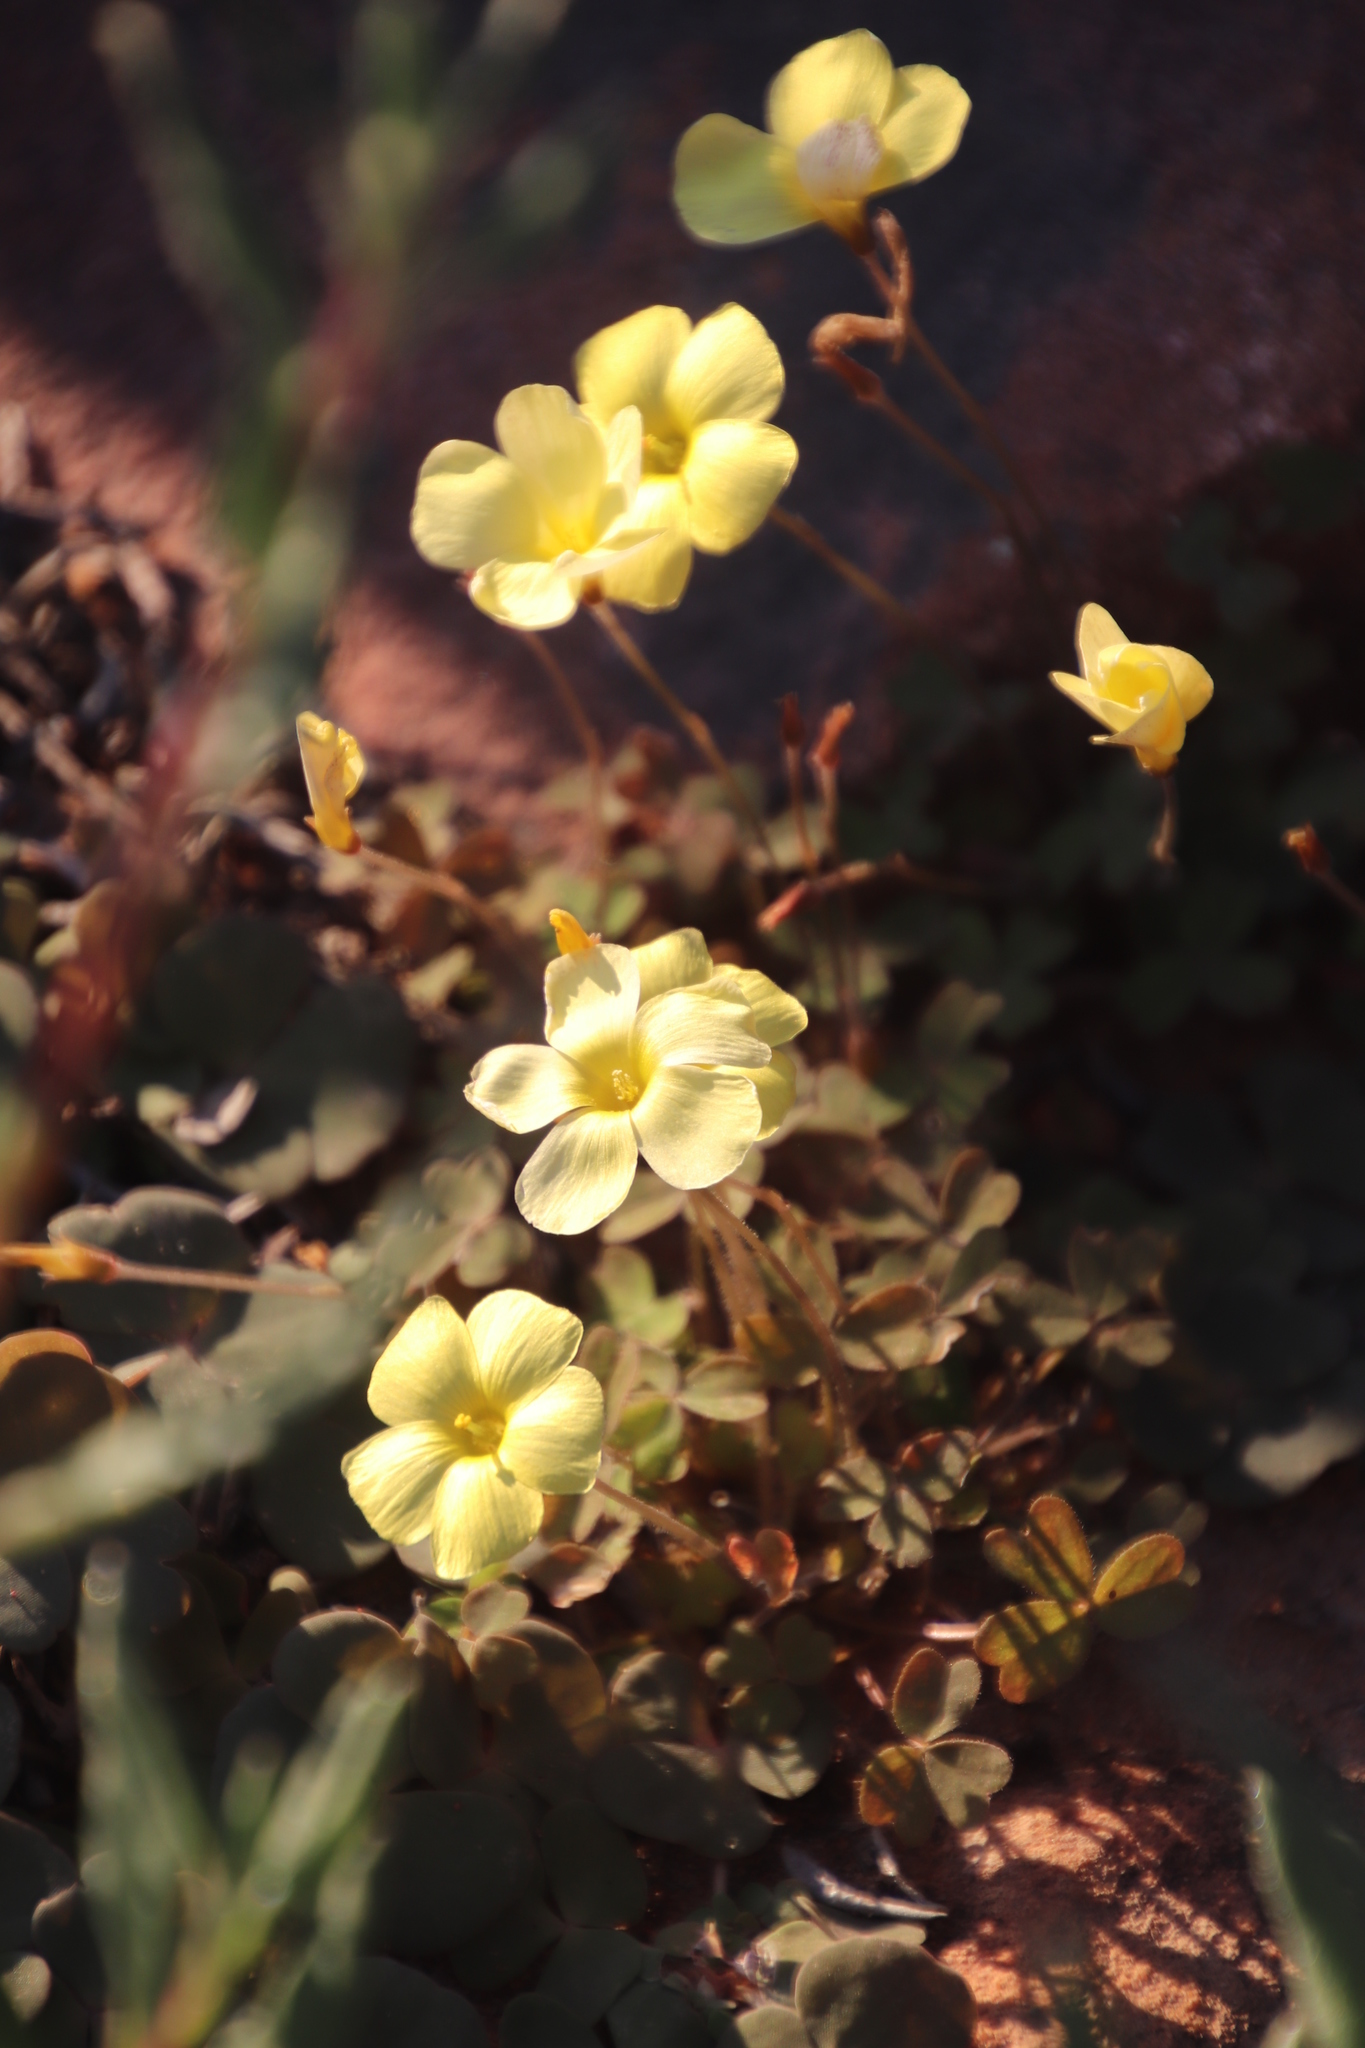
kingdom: Plantae
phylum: Tracheophyta
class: Magnoliopsida
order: Oxalidales
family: Oxalidaceae
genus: Oxalis
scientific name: Oxalis obtusa
